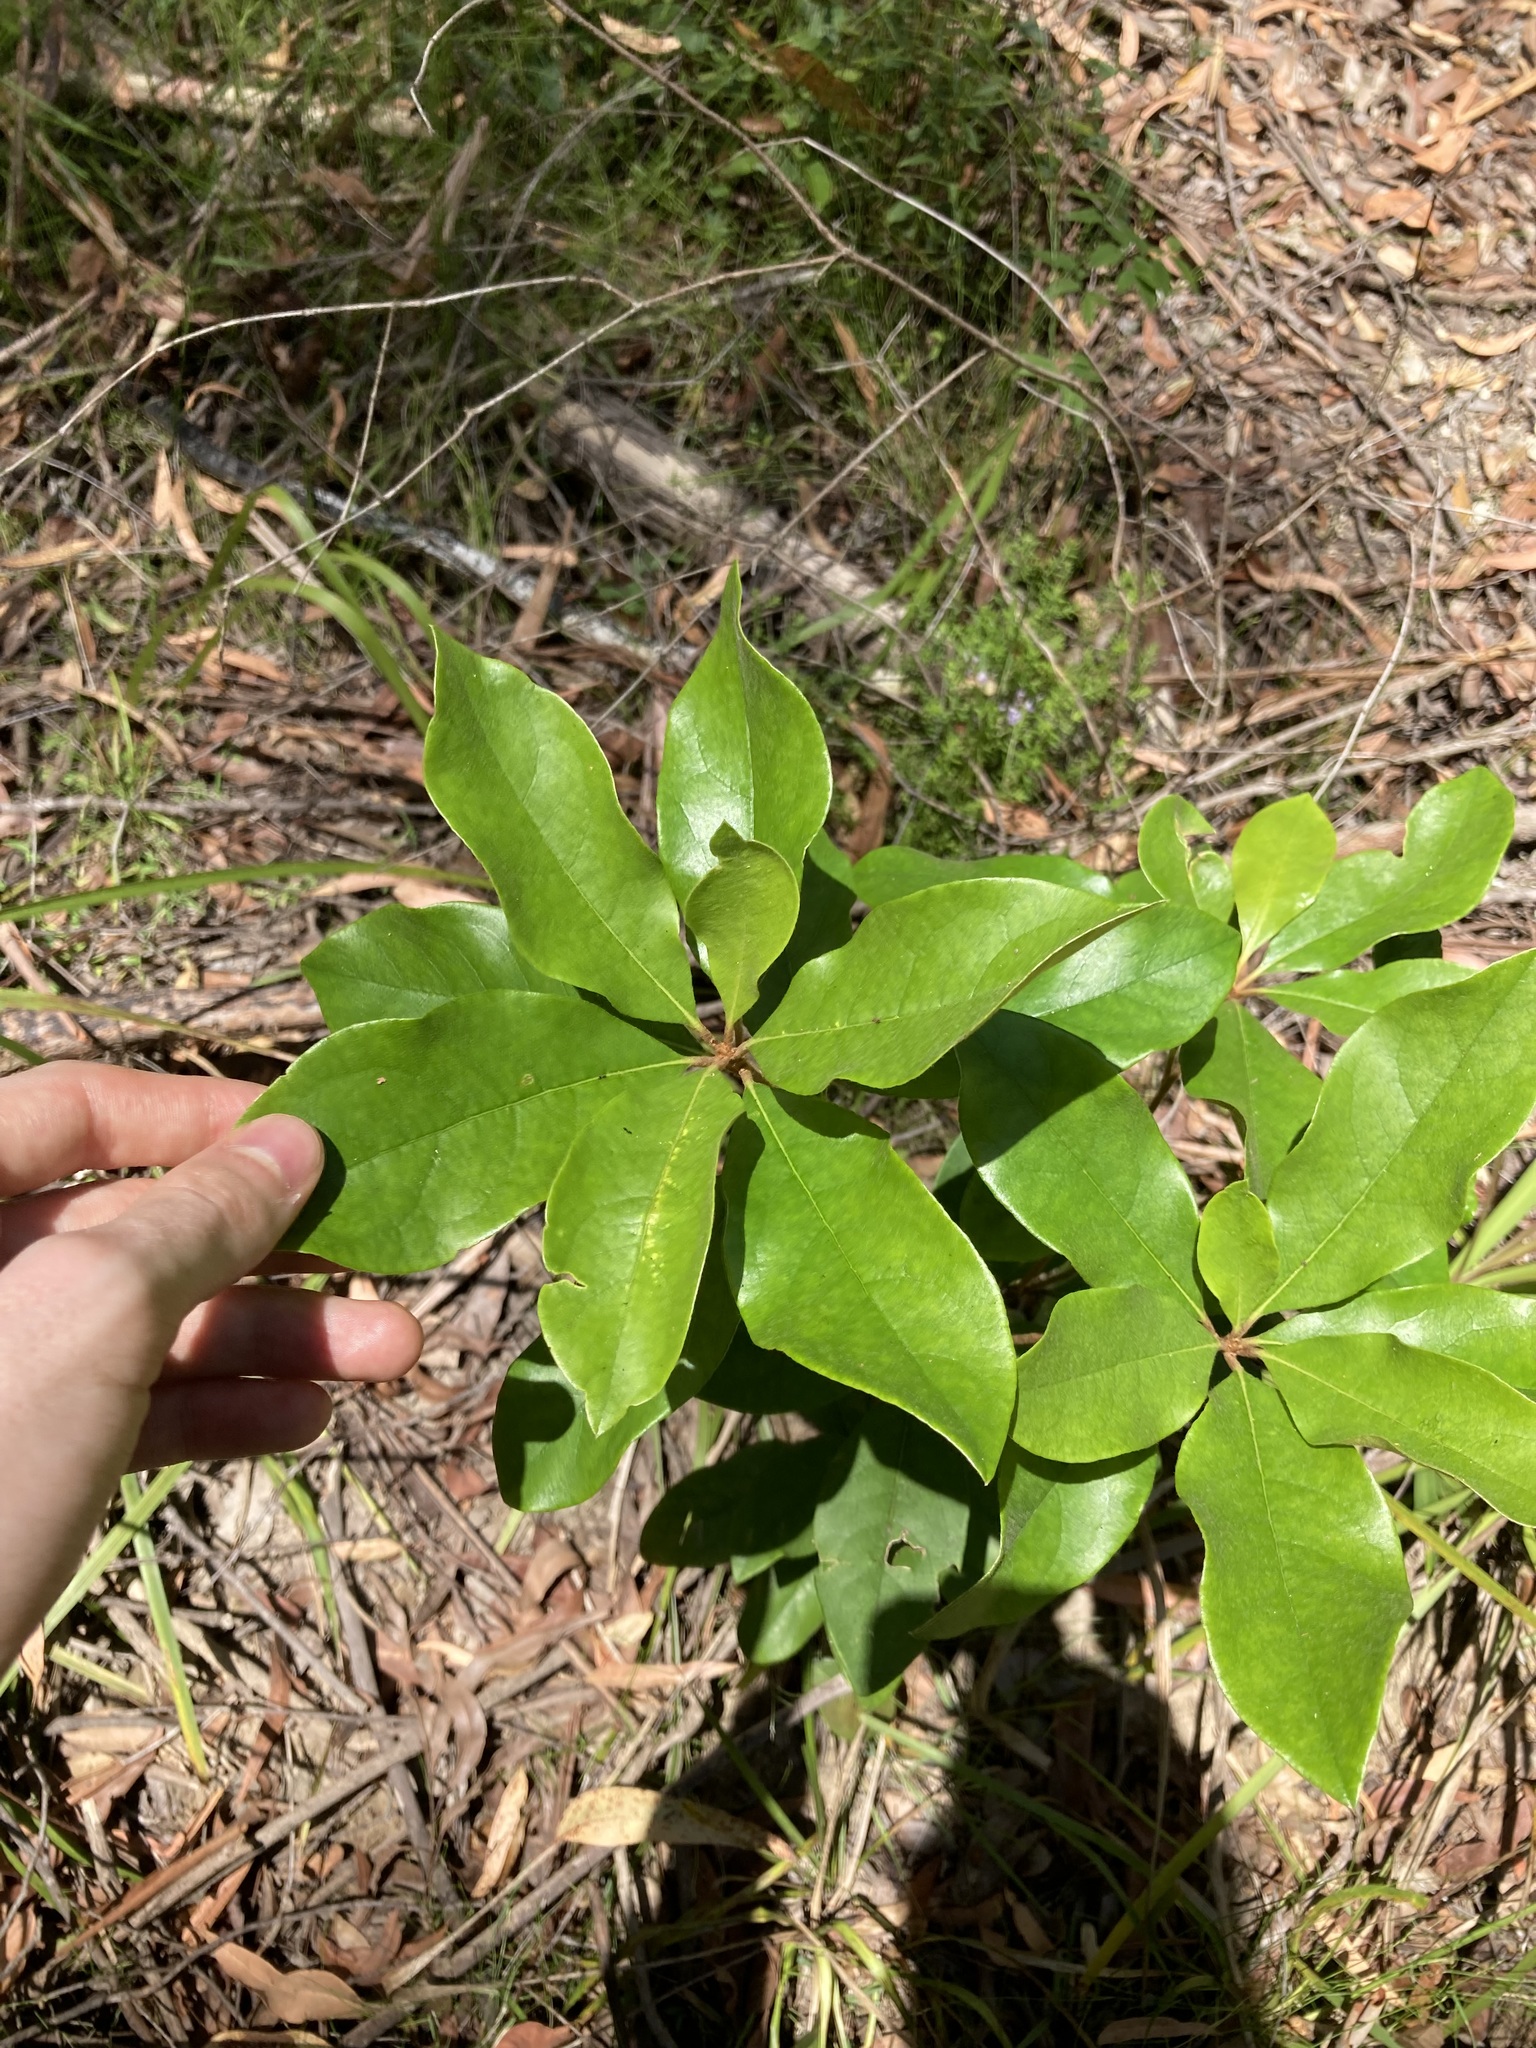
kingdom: Plantae
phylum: Tracheophyta
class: Magnoliopsida
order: Apiales
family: Pittosporaceae
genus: Pittosporum
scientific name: Pittosporum revolutum
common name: Brisbane-laurel
